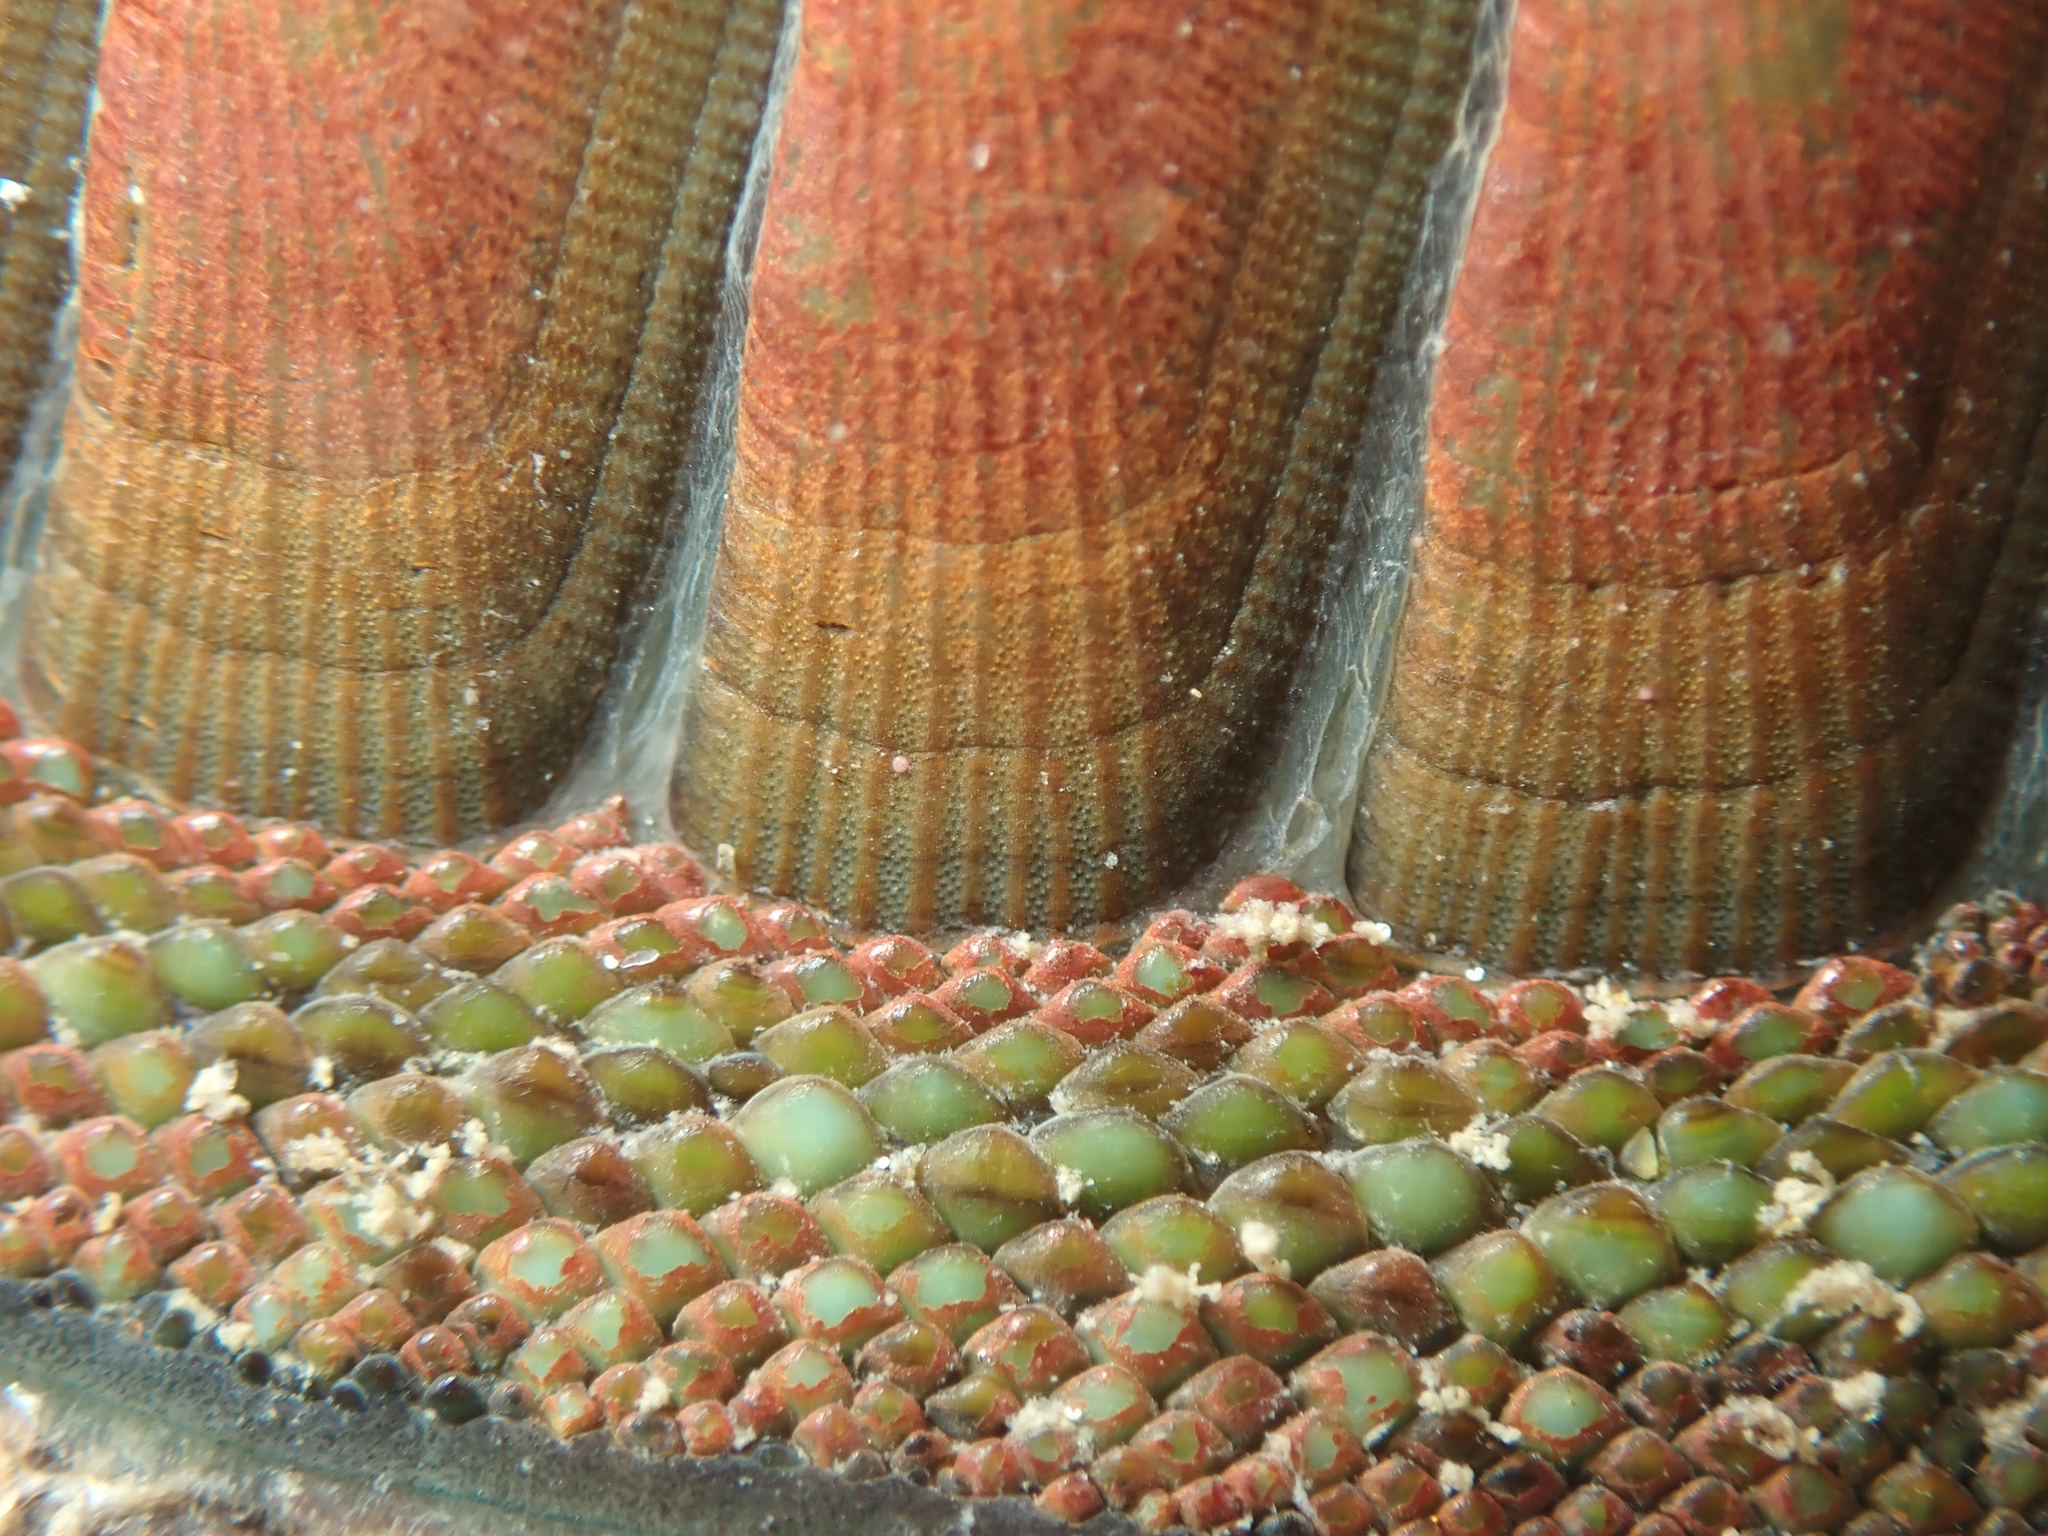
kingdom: Animalia
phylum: Mollusca
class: Polyplacophora
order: Chitonida
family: Chitonidae
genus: Chiton
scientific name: Chiton glaucus
